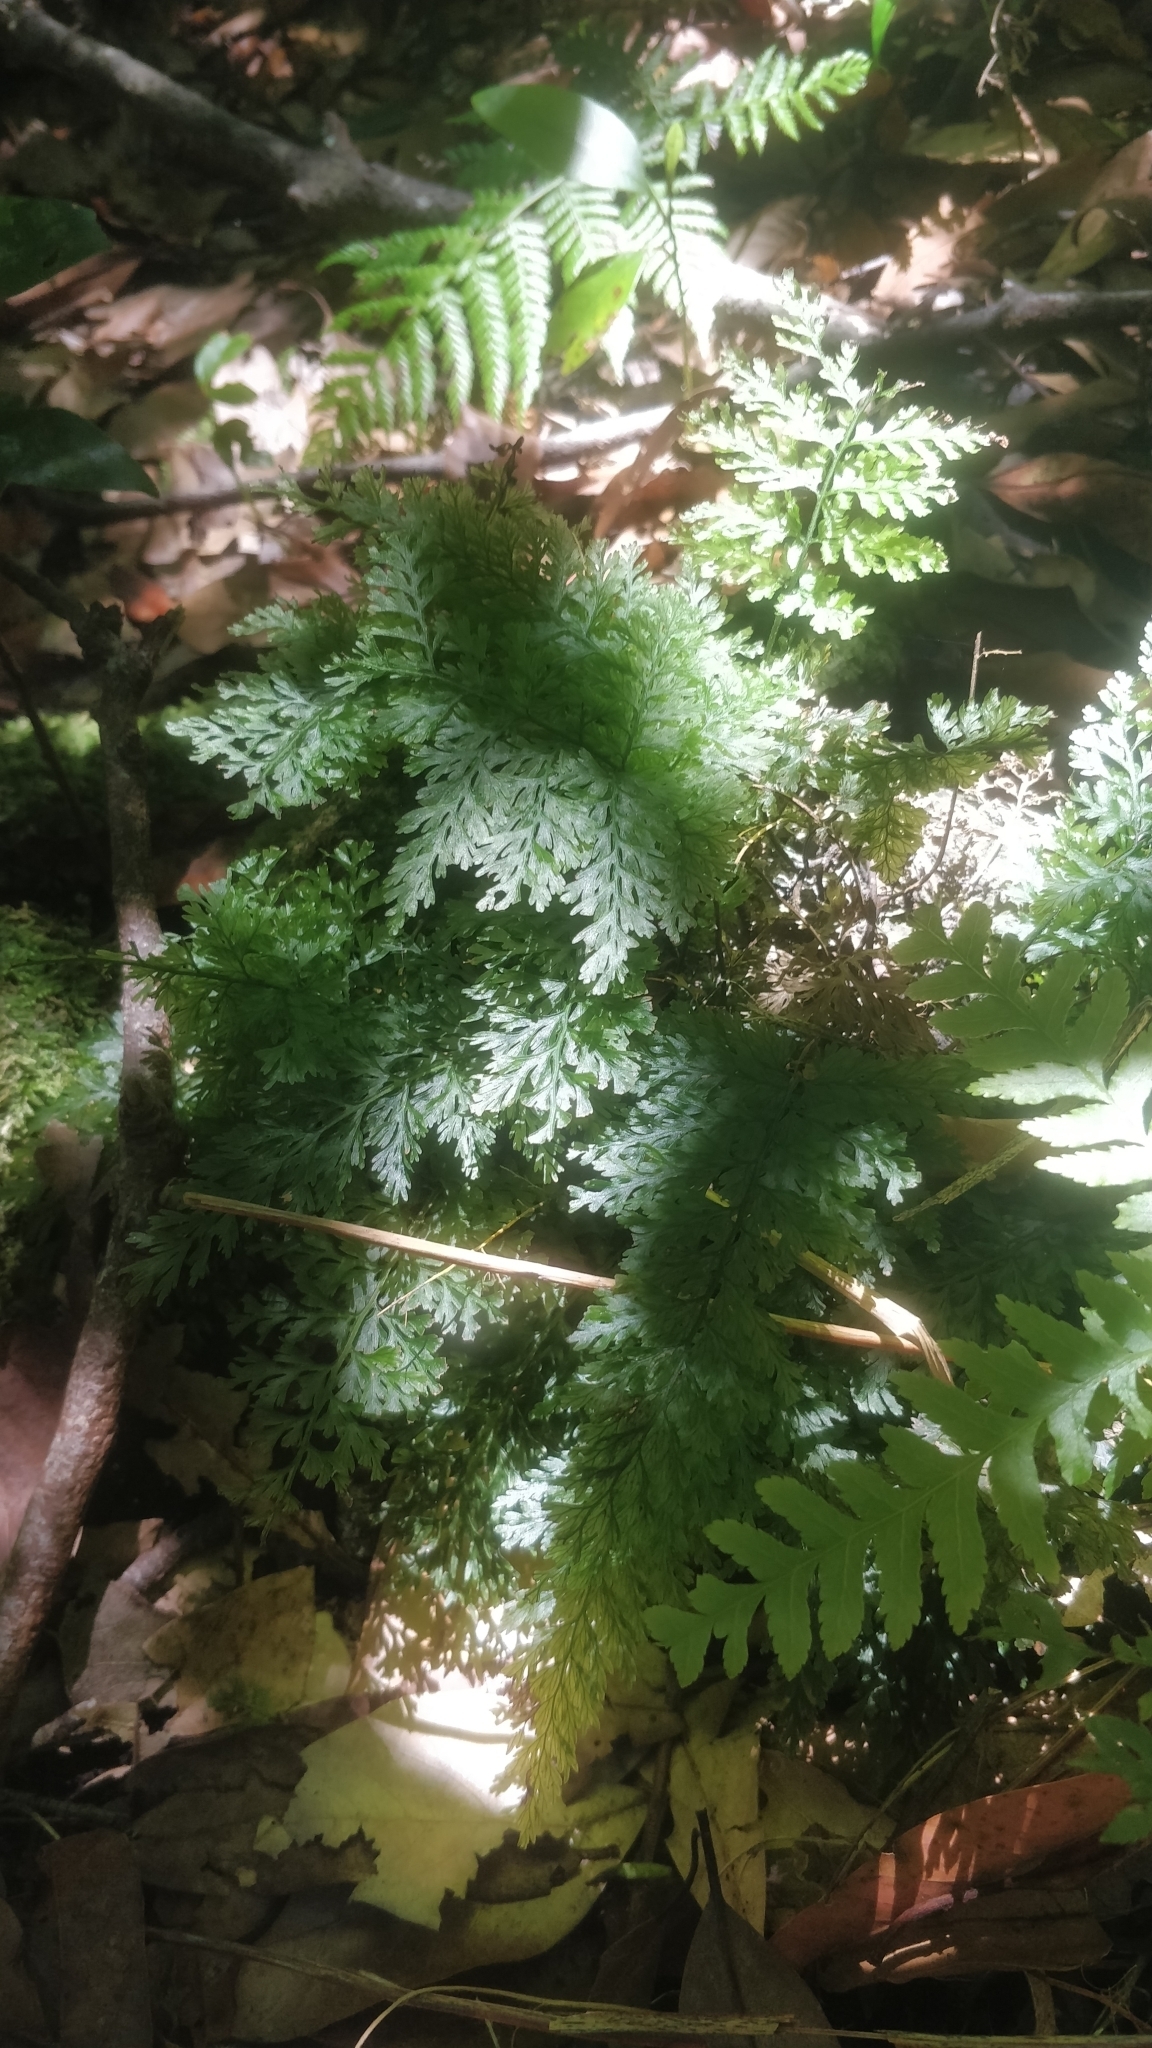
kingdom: Plantae
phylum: Tracheophyta
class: Polypodiopsida
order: Hymenophyllales
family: Hymenophyllaceae
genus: Vandenboschia
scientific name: Vandenboschia speciosa
